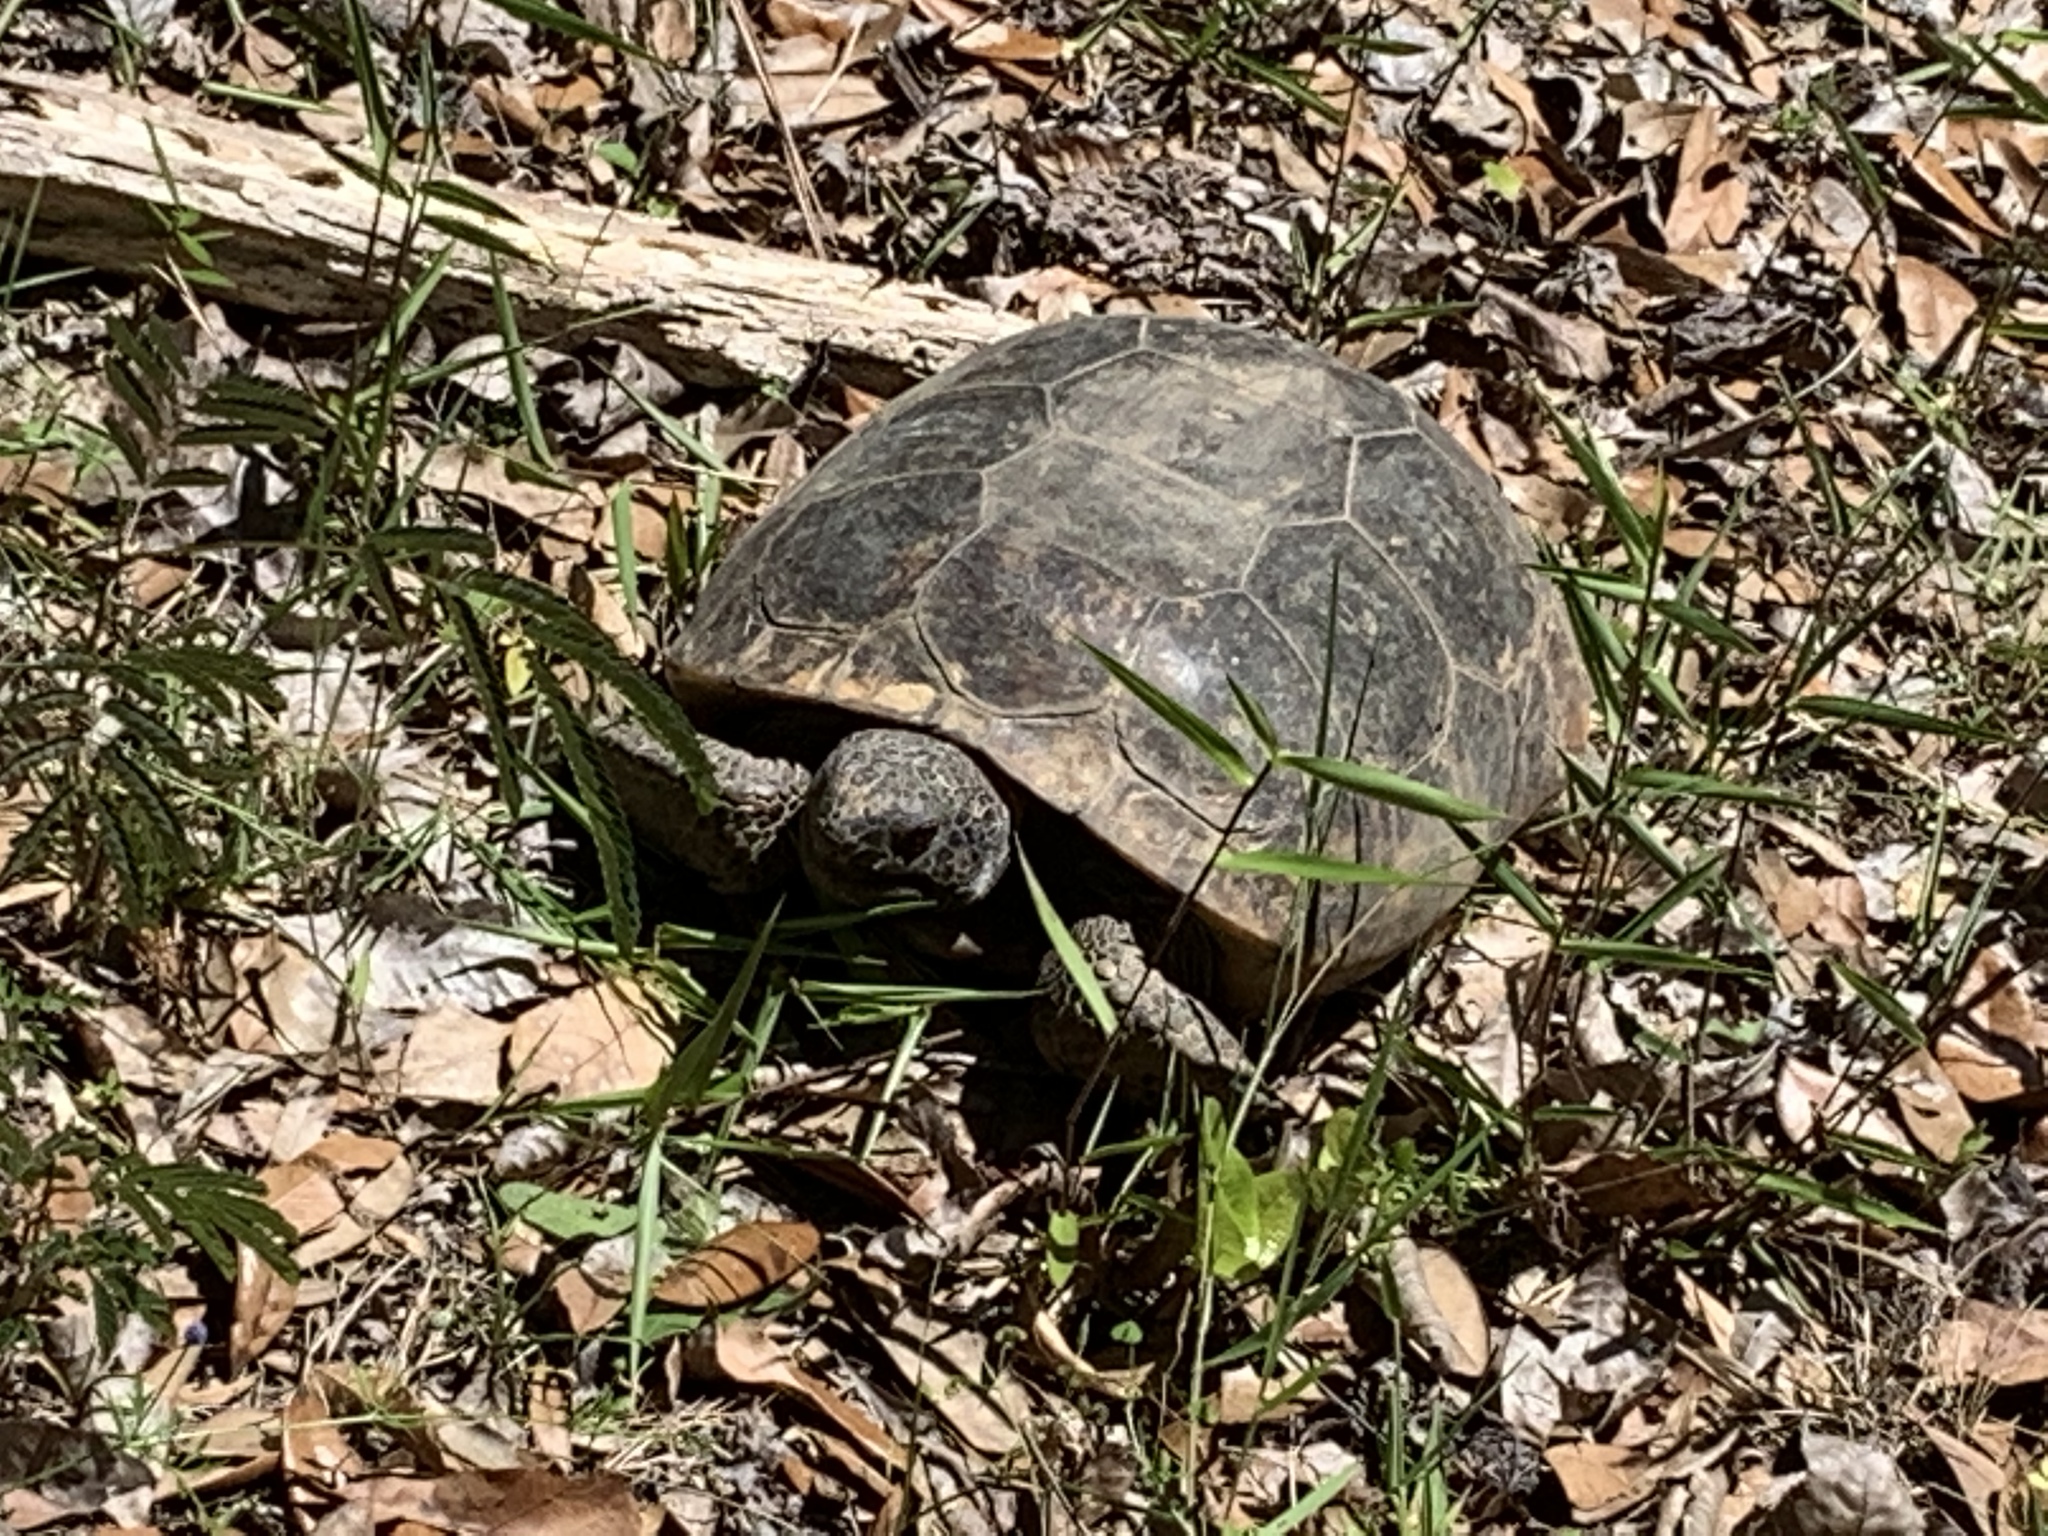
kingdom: Animalia
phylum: Chordata
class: Testudines
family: Testudinidae
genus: Gopherus
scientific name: Gopherus polyphemus
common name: Florida gopher tortoise
